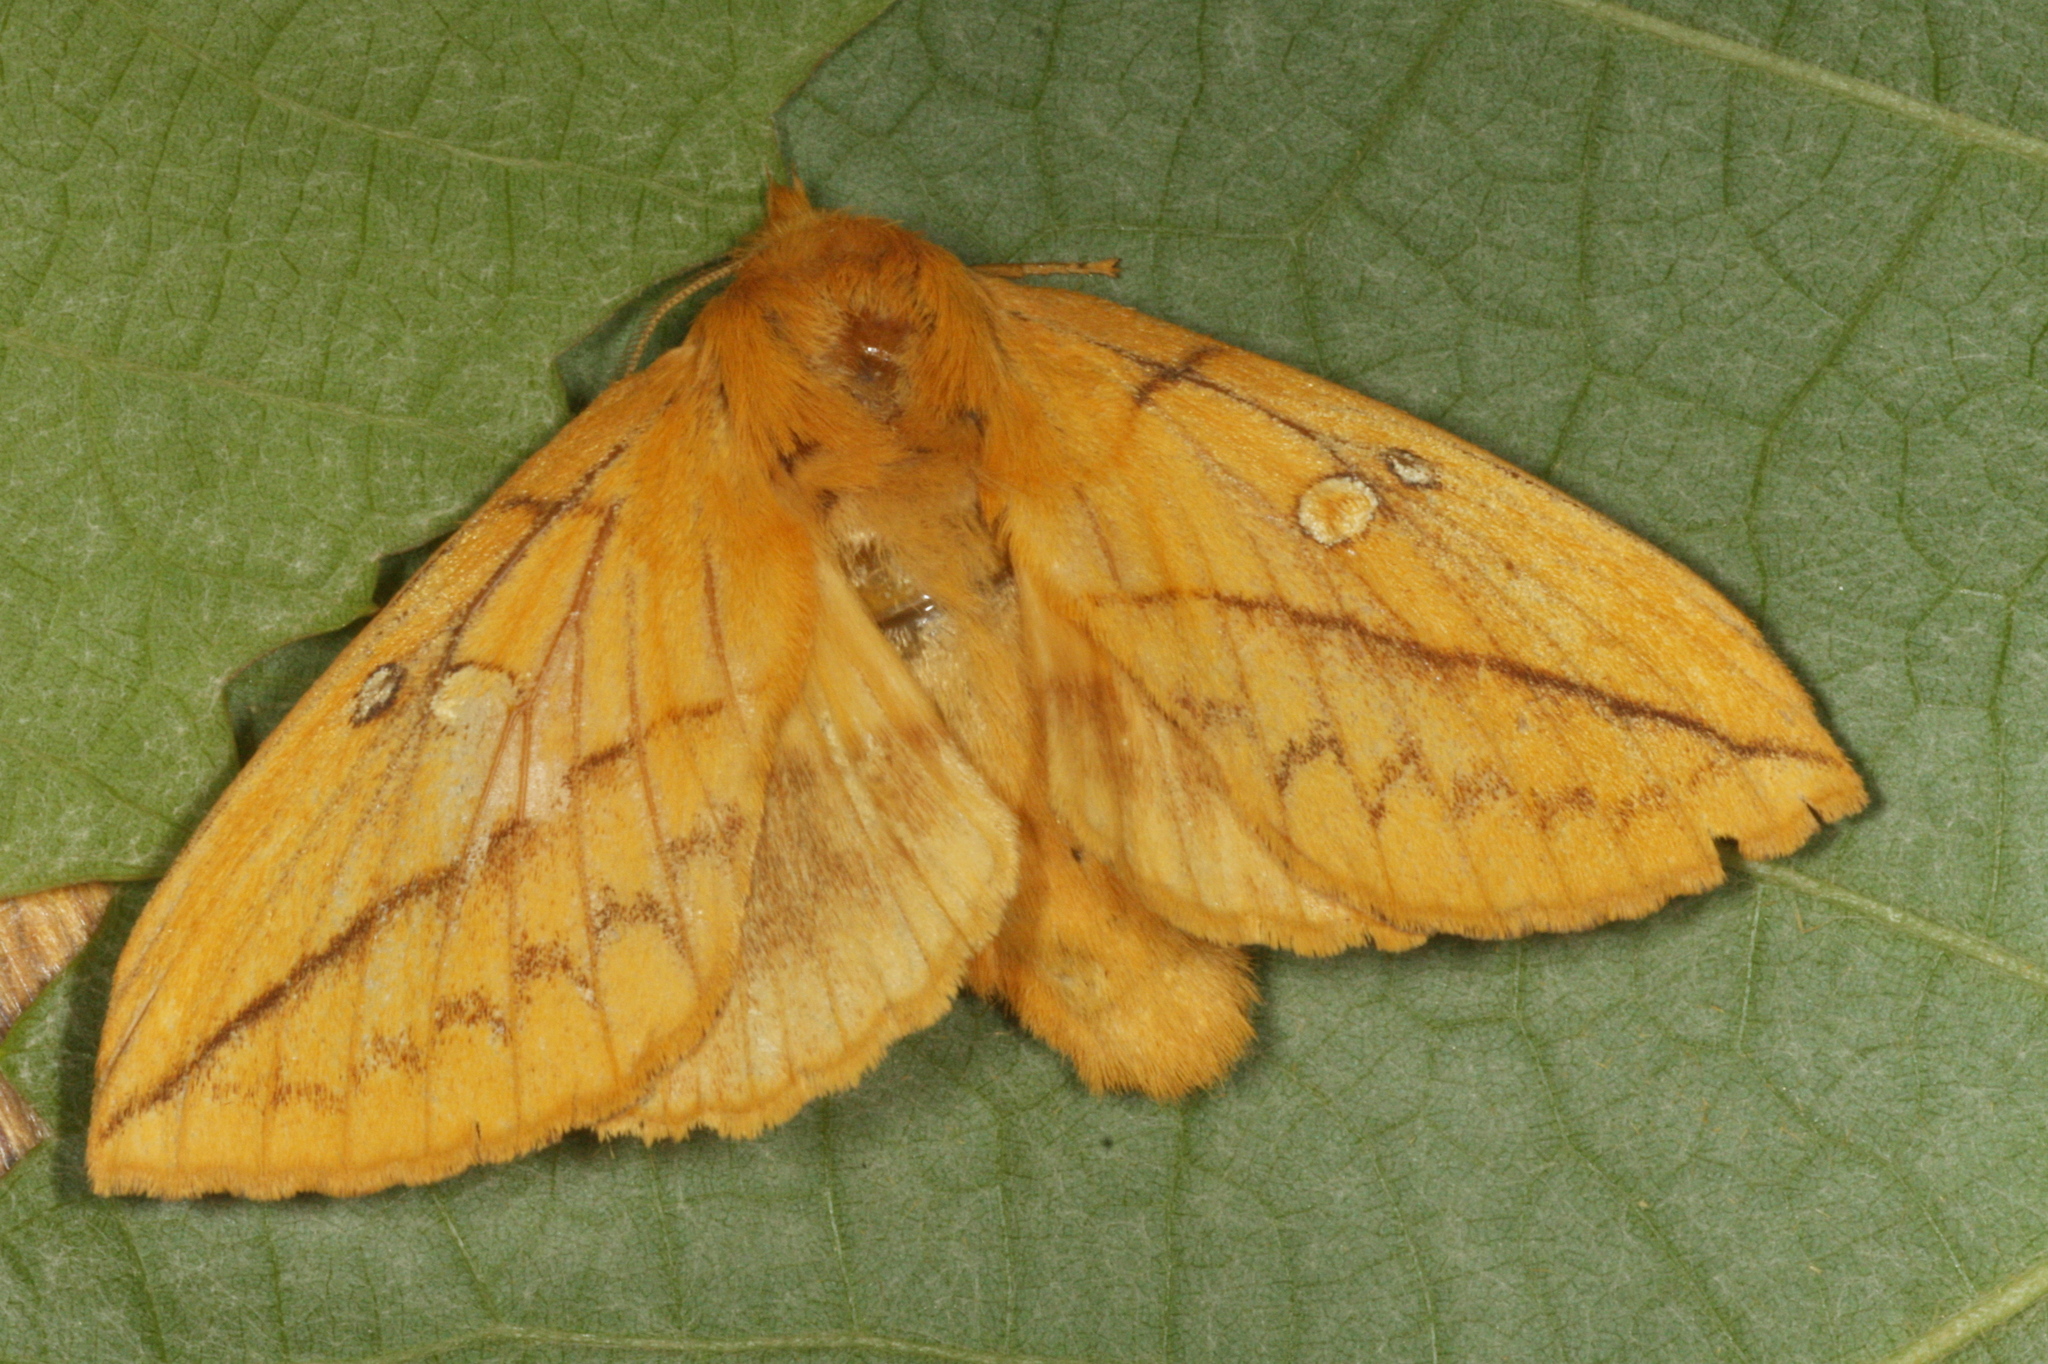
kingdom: Animalia
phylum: Arthropoda
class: Insecta
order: Lepidoptera
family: Lasiocampidae
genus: Euthrix
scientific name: Euthrix potatoria
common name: Drinker
